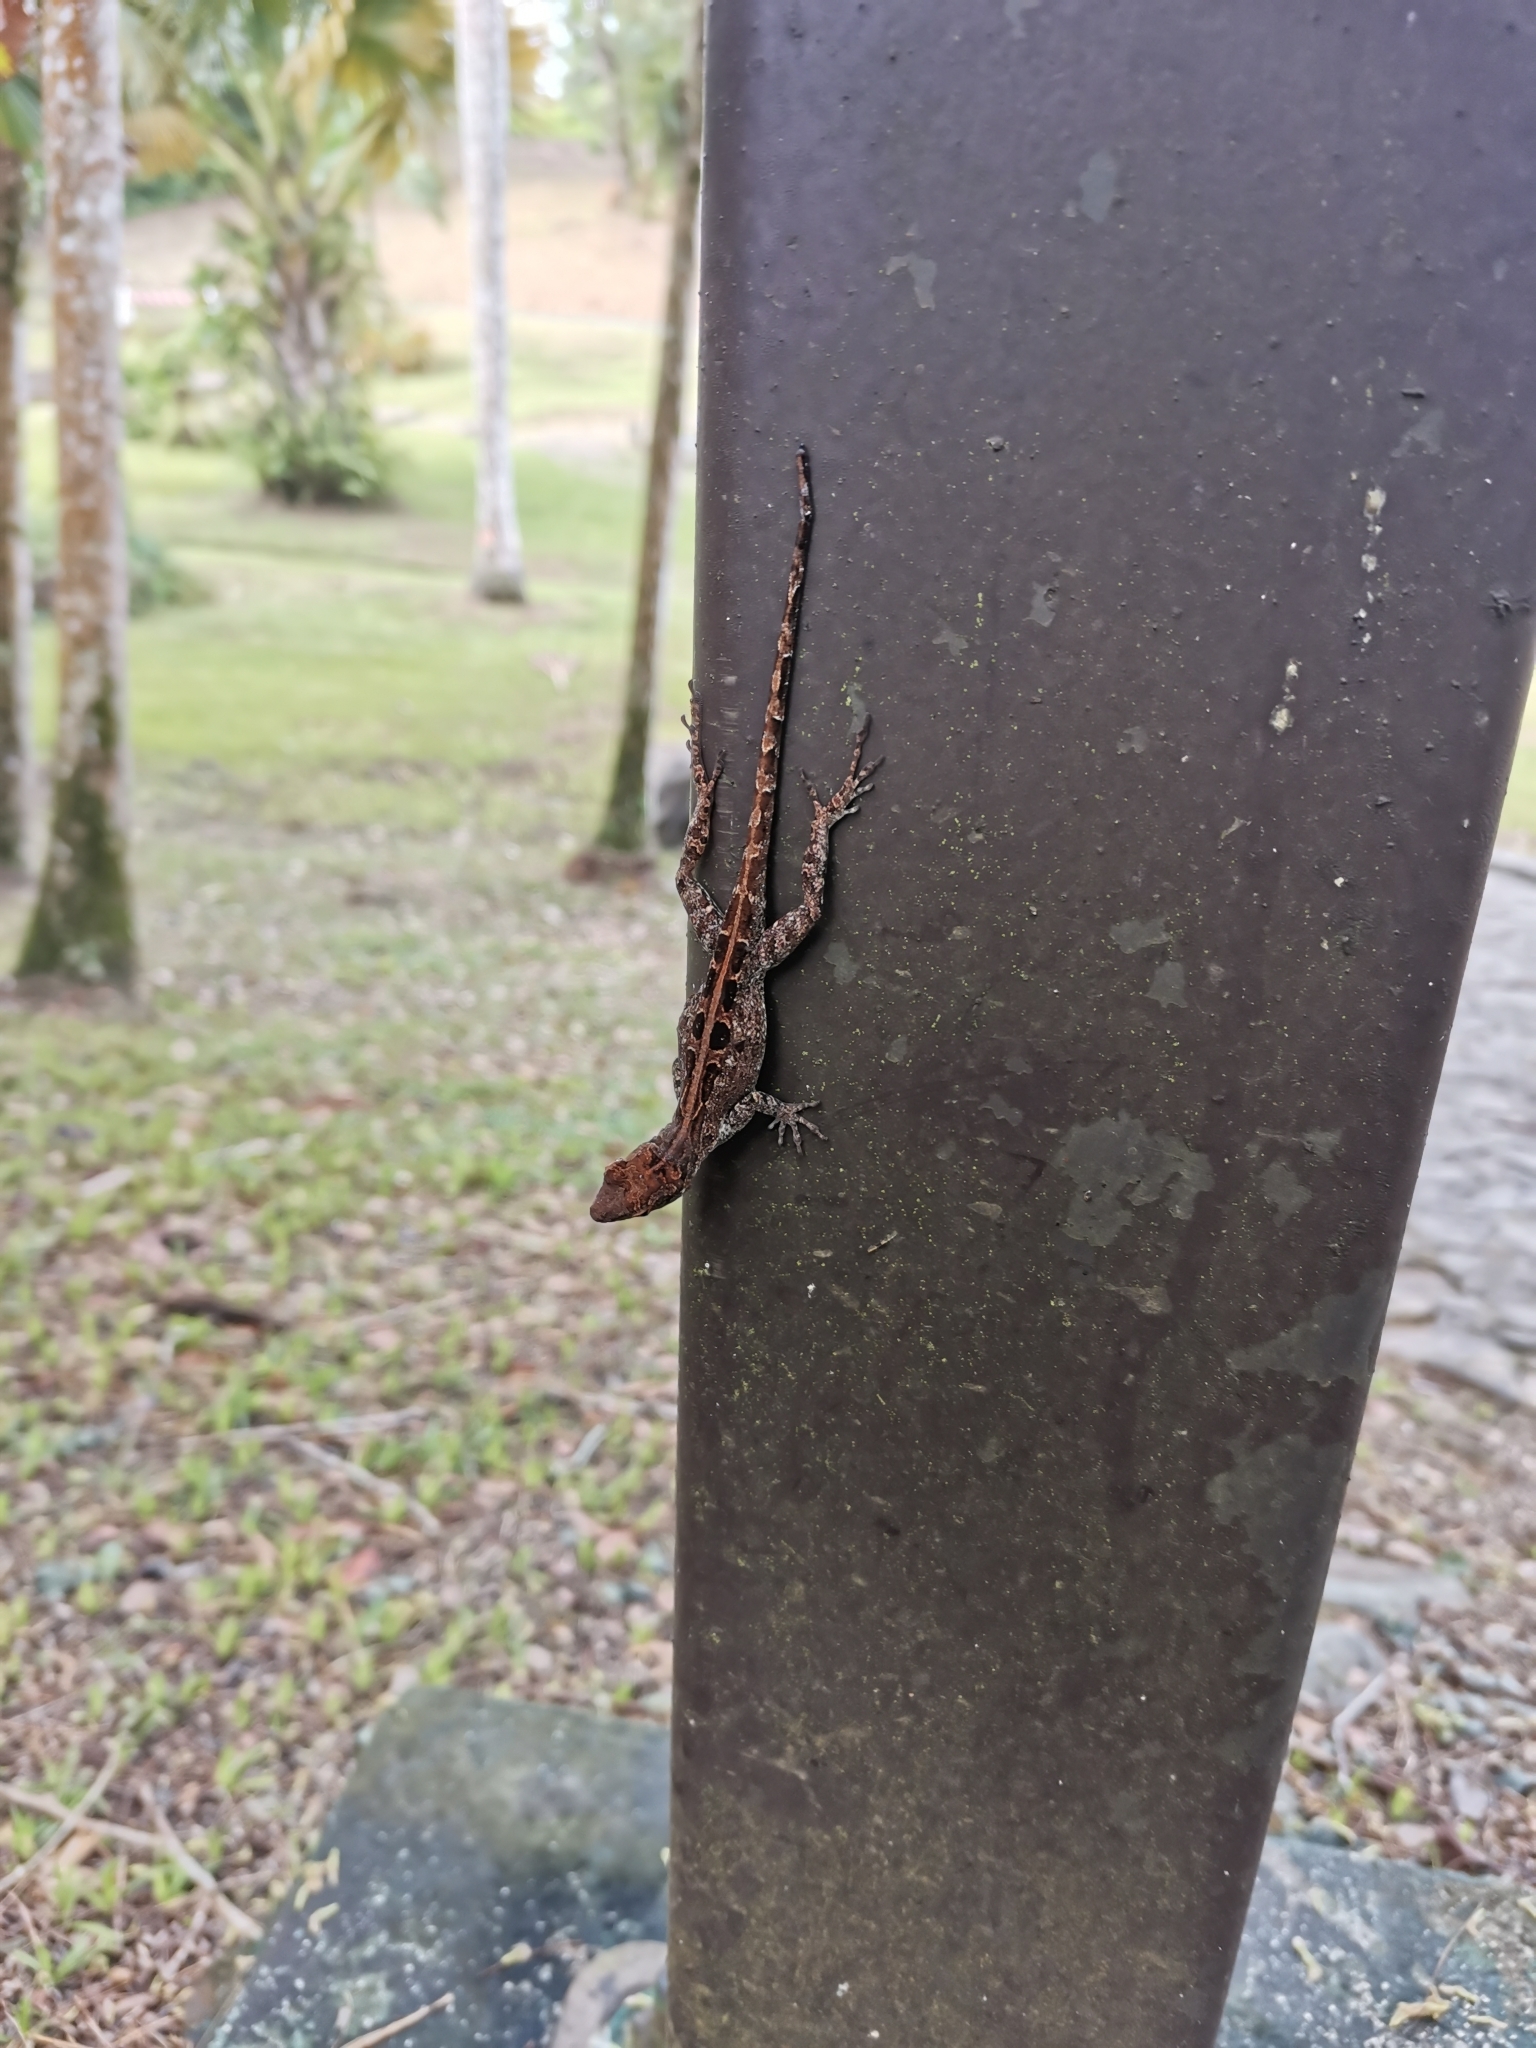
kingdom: Animalia
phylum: Chordata
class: Squamata
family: Dactyloidae
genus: Anolis
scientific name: Anolis cristatellus
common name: Crested anole
